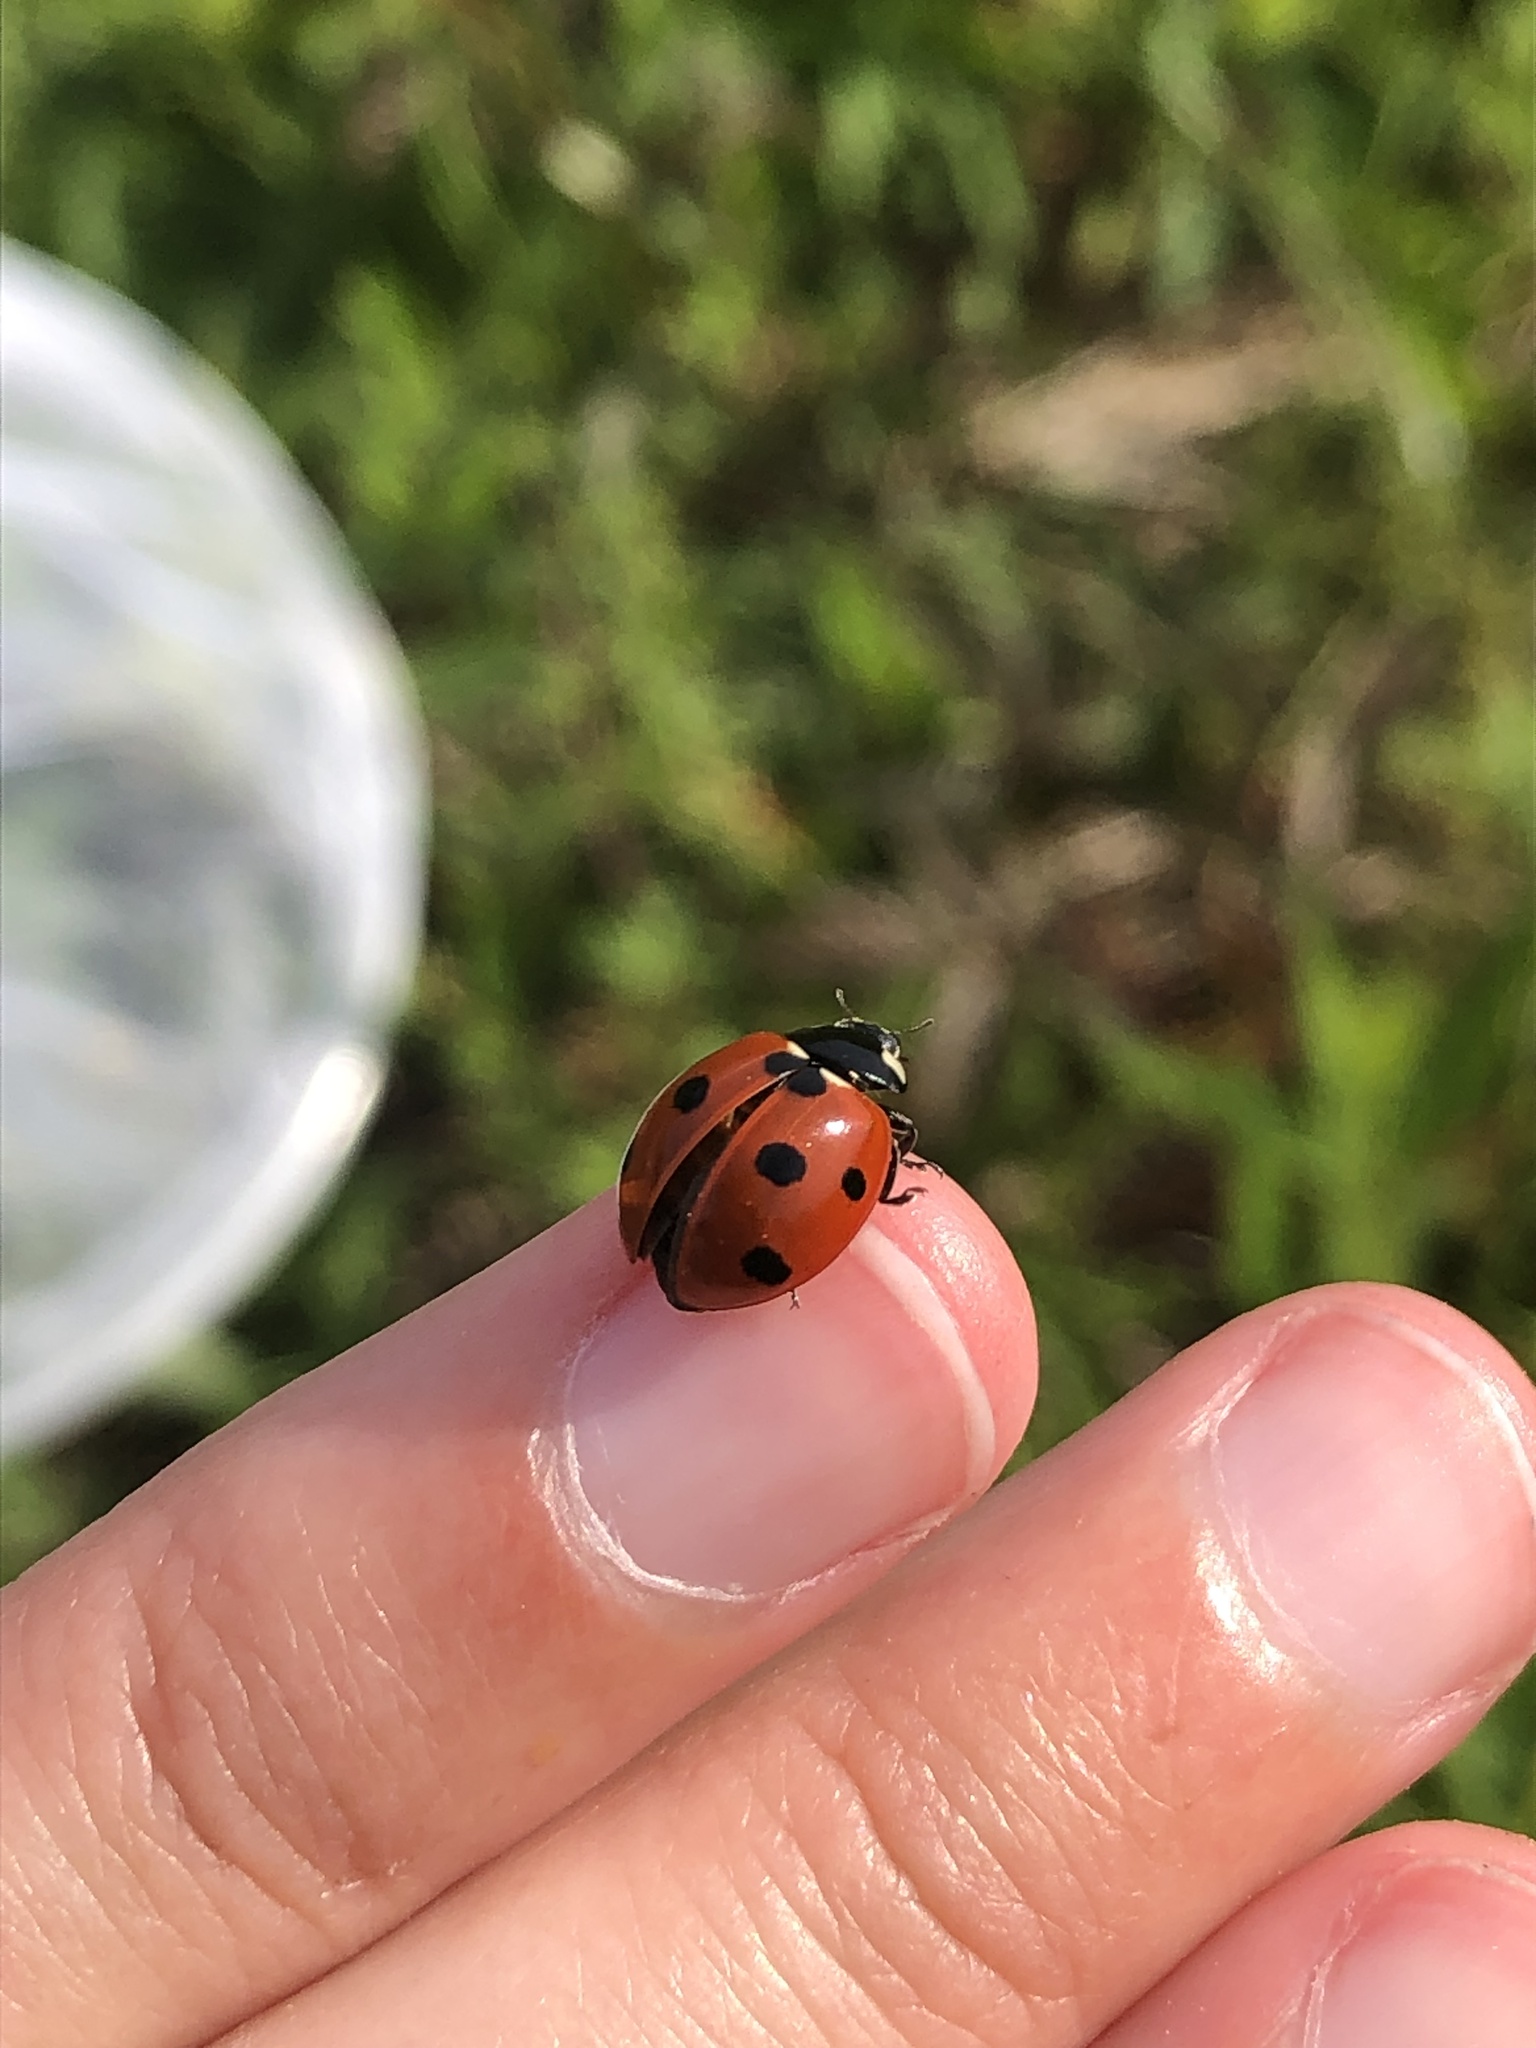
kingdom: Animalia
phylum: Arthropoda
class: Insecta
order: Coleoptera
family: Coccinellidae
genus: Coccinella
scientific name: Coccinella septempunctata
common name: Sevenspotted lady beetle
